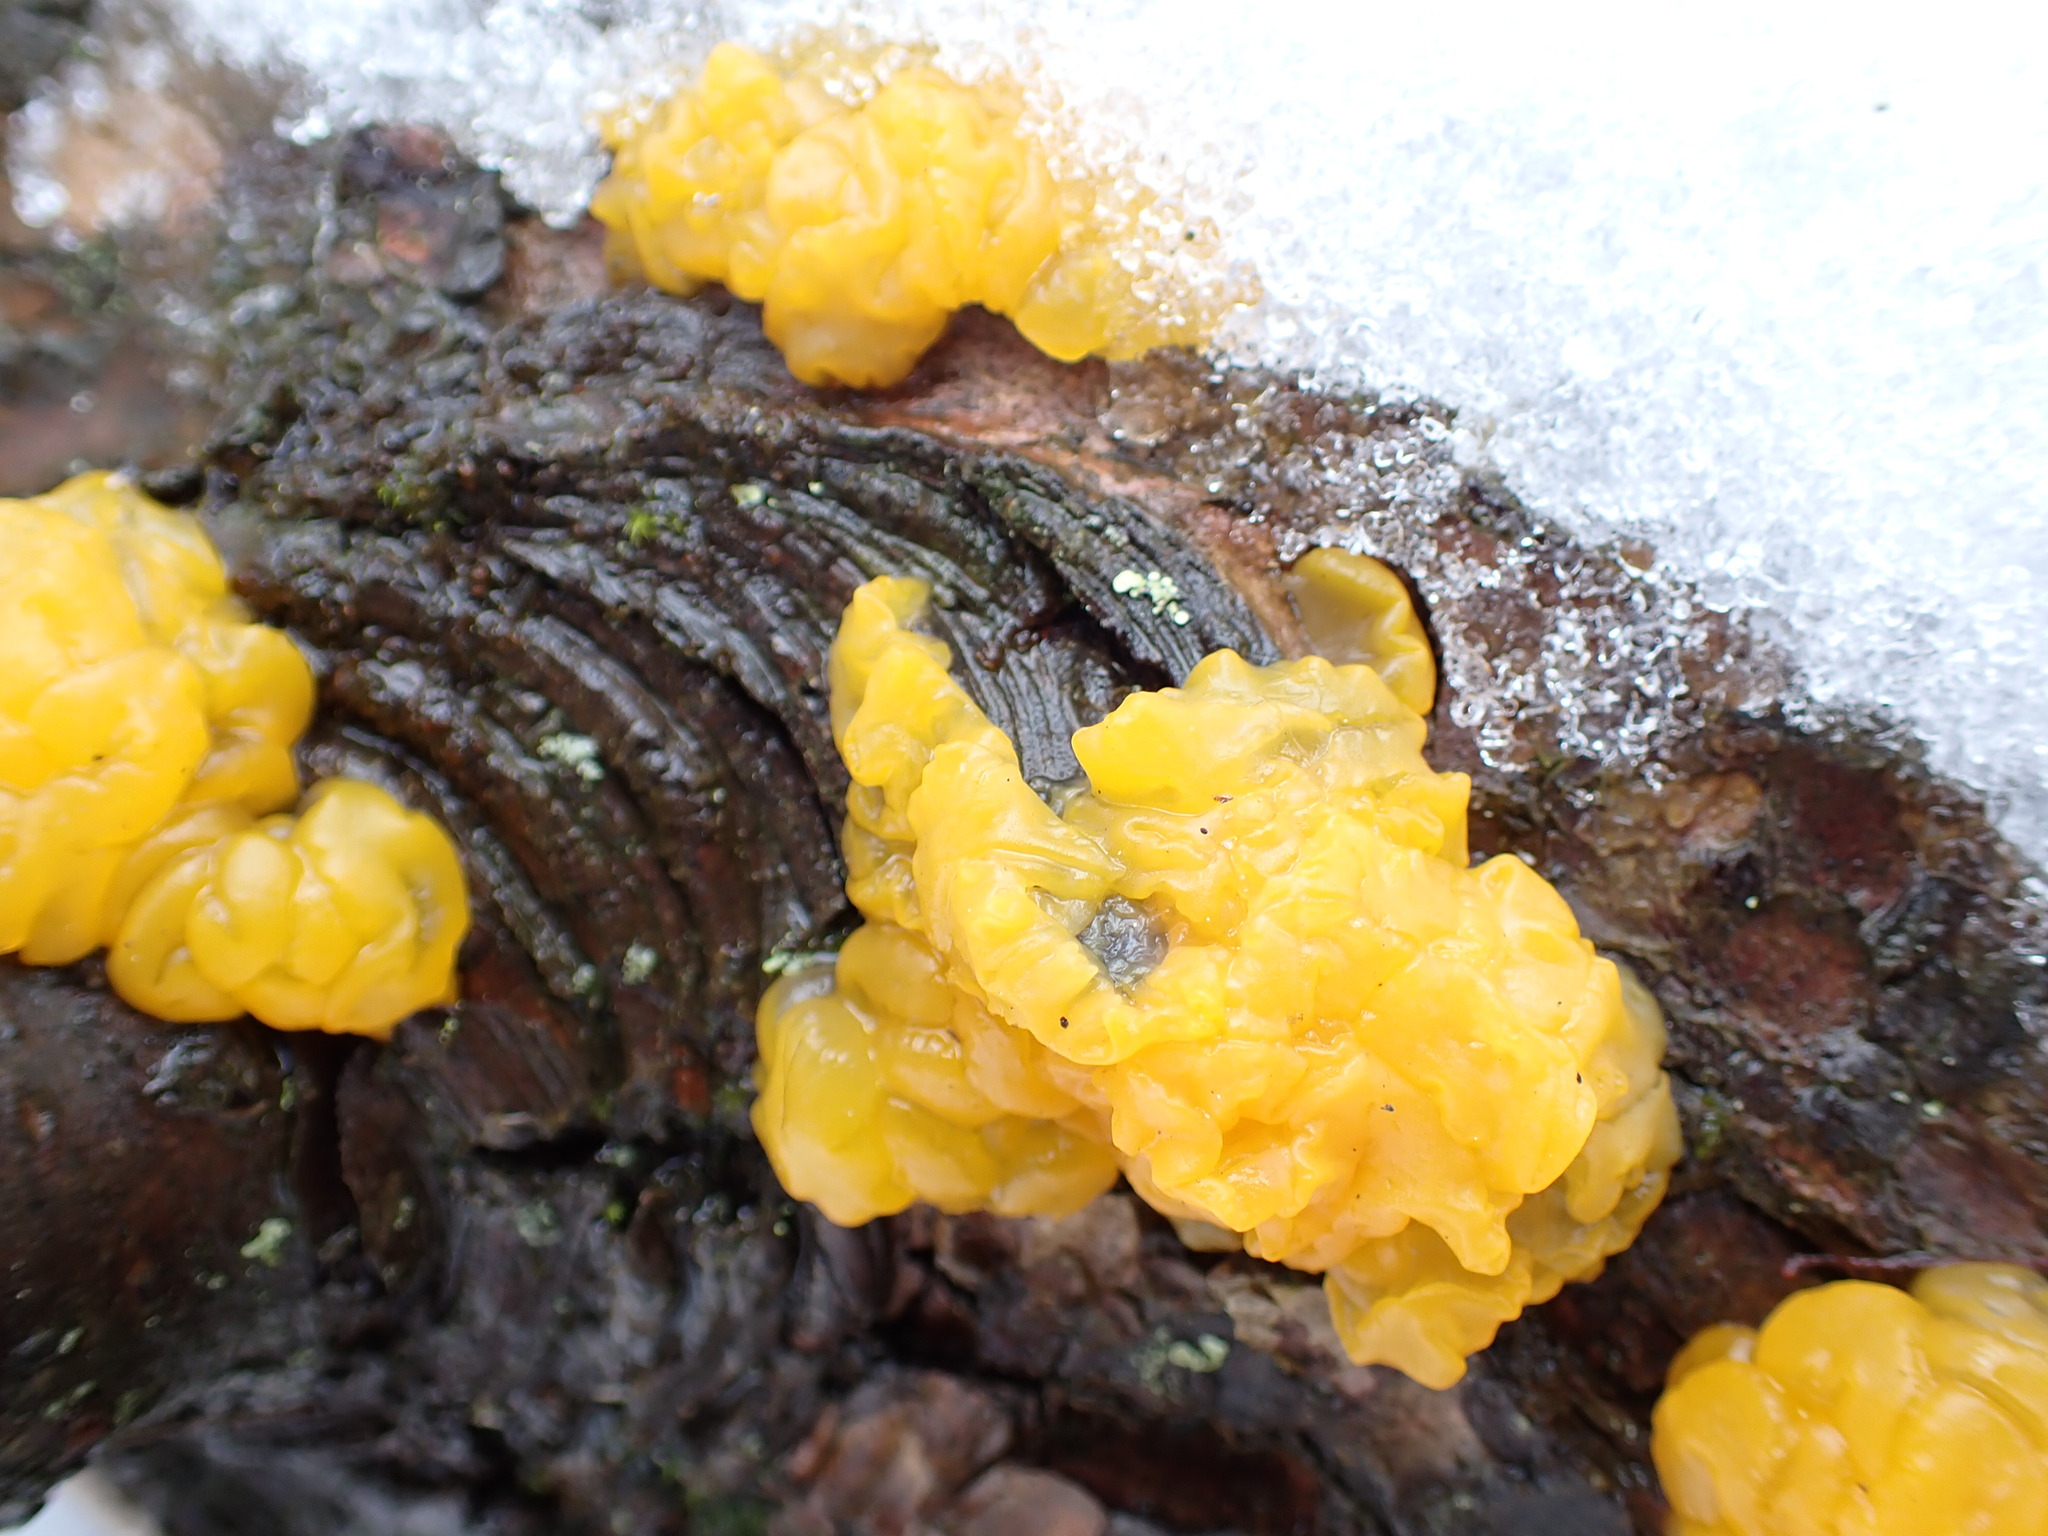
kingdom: Fungi
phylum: Basidiomycota
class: Dacrymycetes
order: Dacrymycetales
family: Dacrymycetaceae
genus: Dacrymyces
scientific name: Dacrymyces chrysospermus
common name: Orange jelly spot
